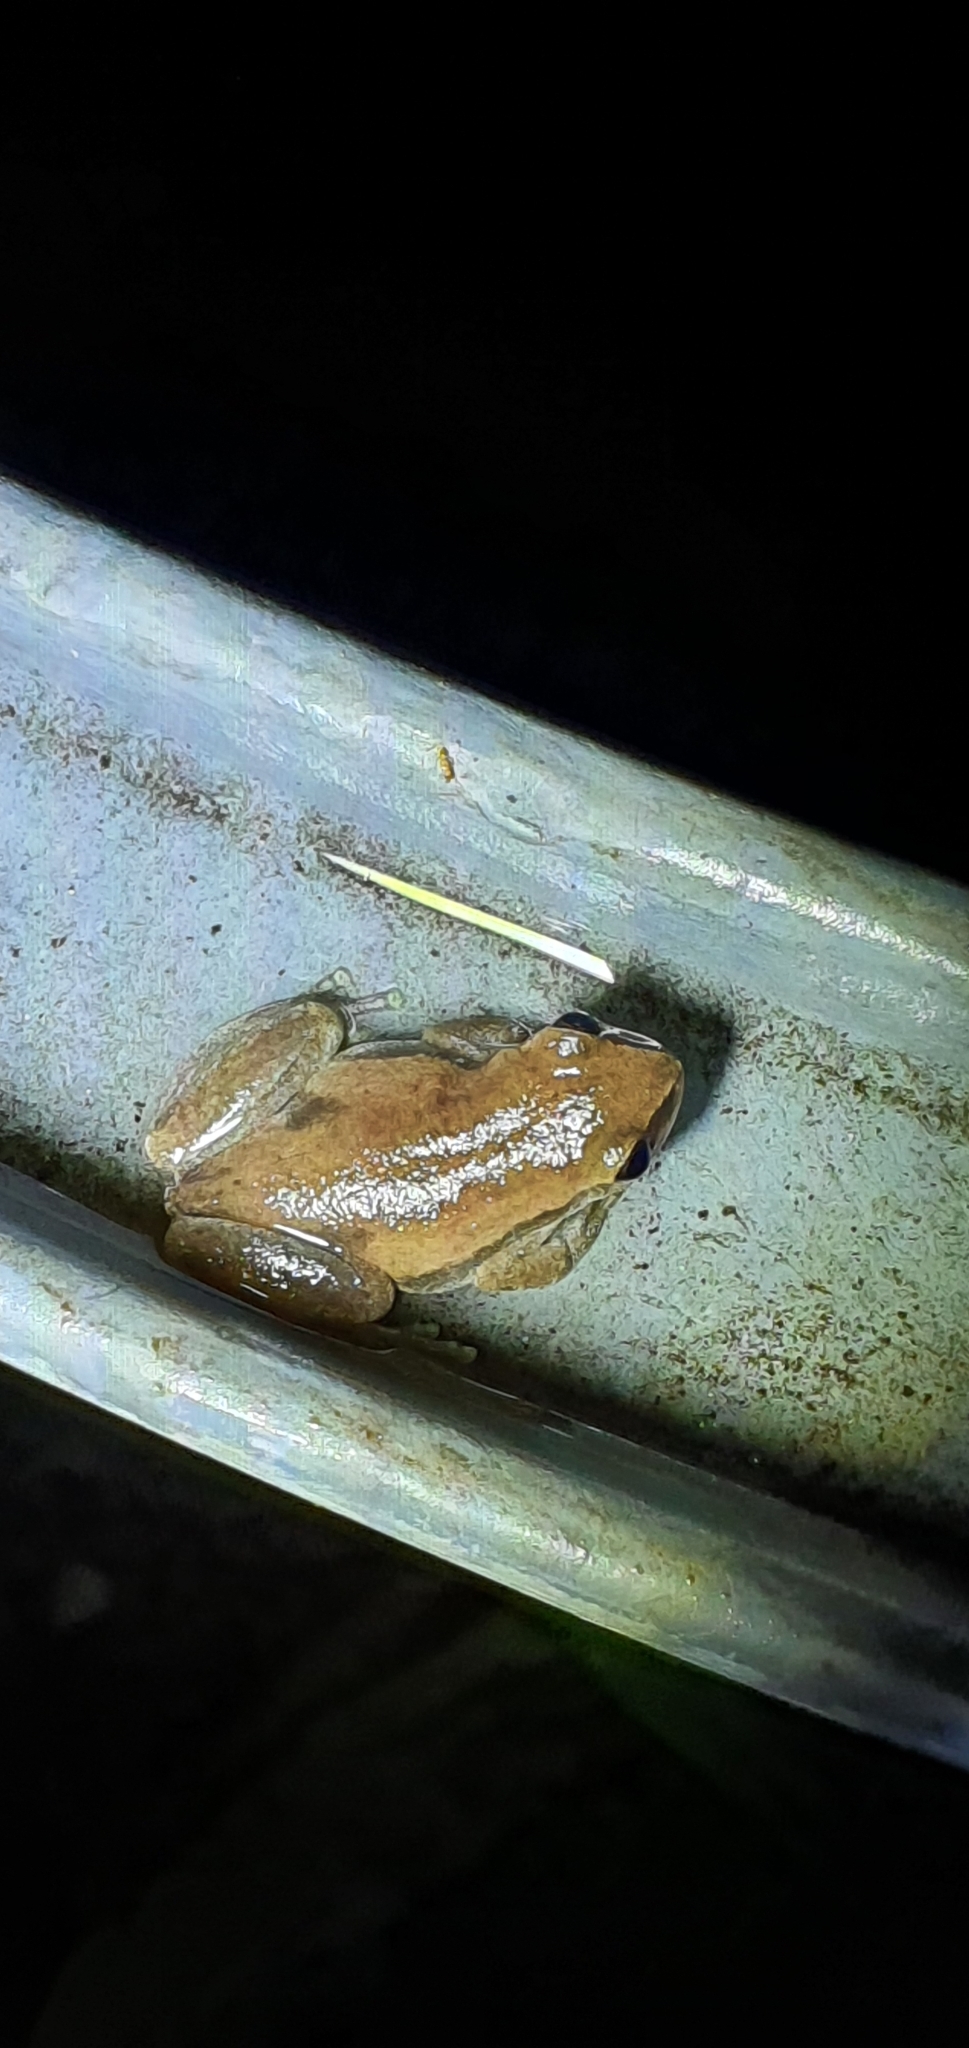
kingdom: Animalia
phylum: Chordata
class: Amphibia
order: Anura
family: Pelodryadidae
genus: Litoria
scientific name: Litoria rubella
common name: Desert tree frog
